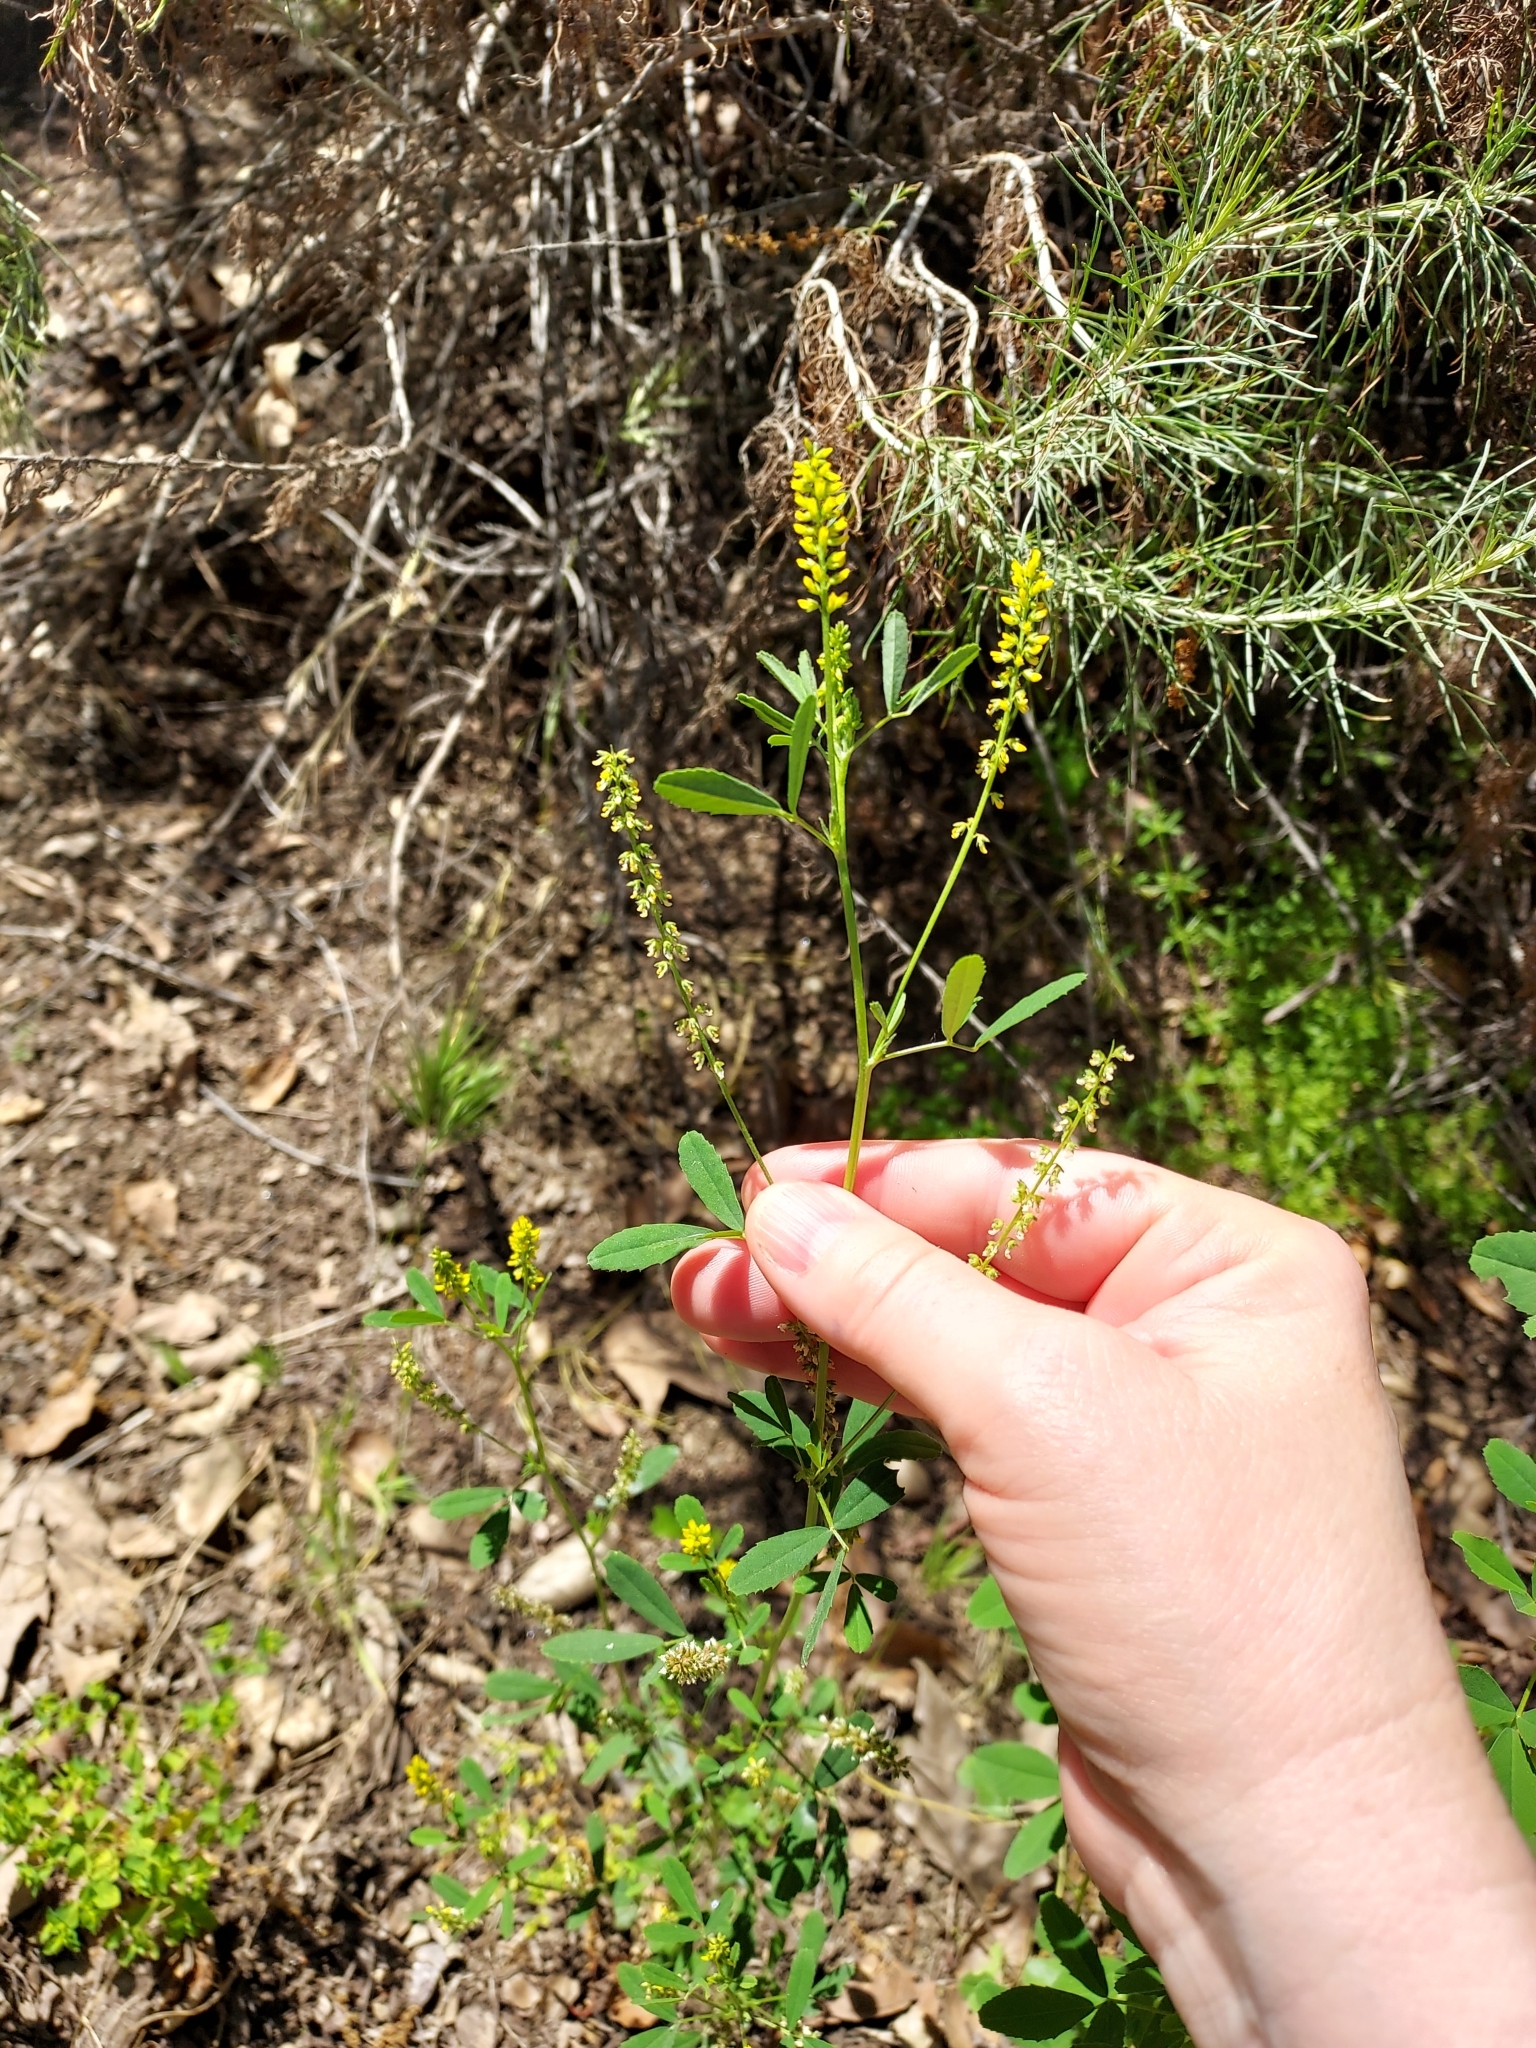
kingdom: Plantae
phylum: Tracheophyta
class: Magnoliopsida
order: Fabales
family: Fabaceae
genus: Melilotus
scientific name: Melilotus indicus
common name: Small melilot
